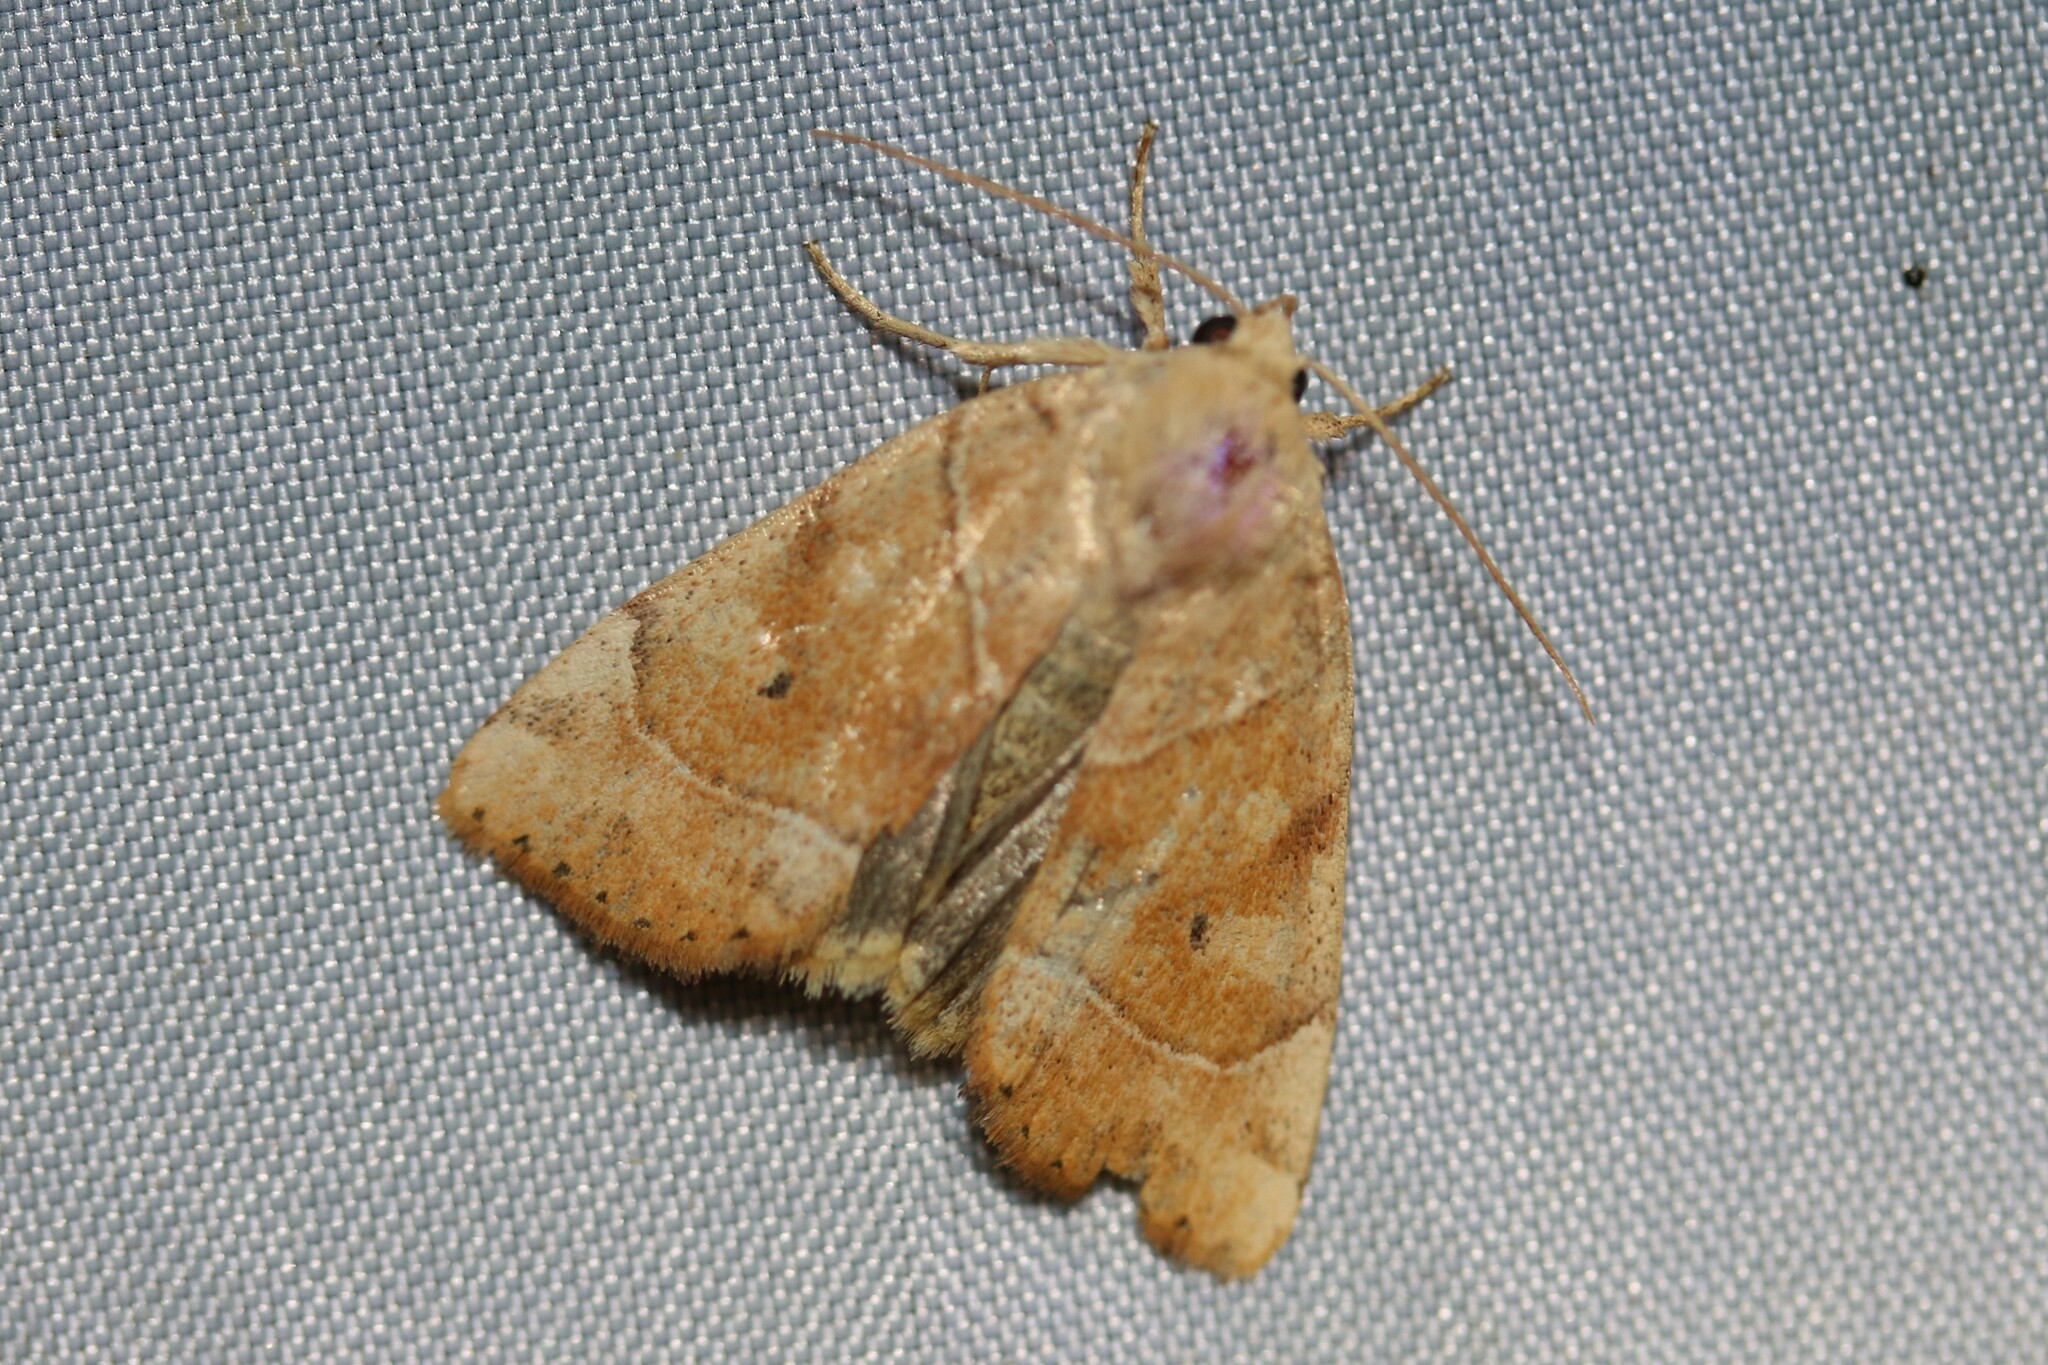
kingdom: Animalia
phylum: Arthropoda
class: Insecta
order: Lepidoptera
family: Noctuidae
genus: Cosmia
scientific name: Cosmia trapezina
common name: Dun-bar
